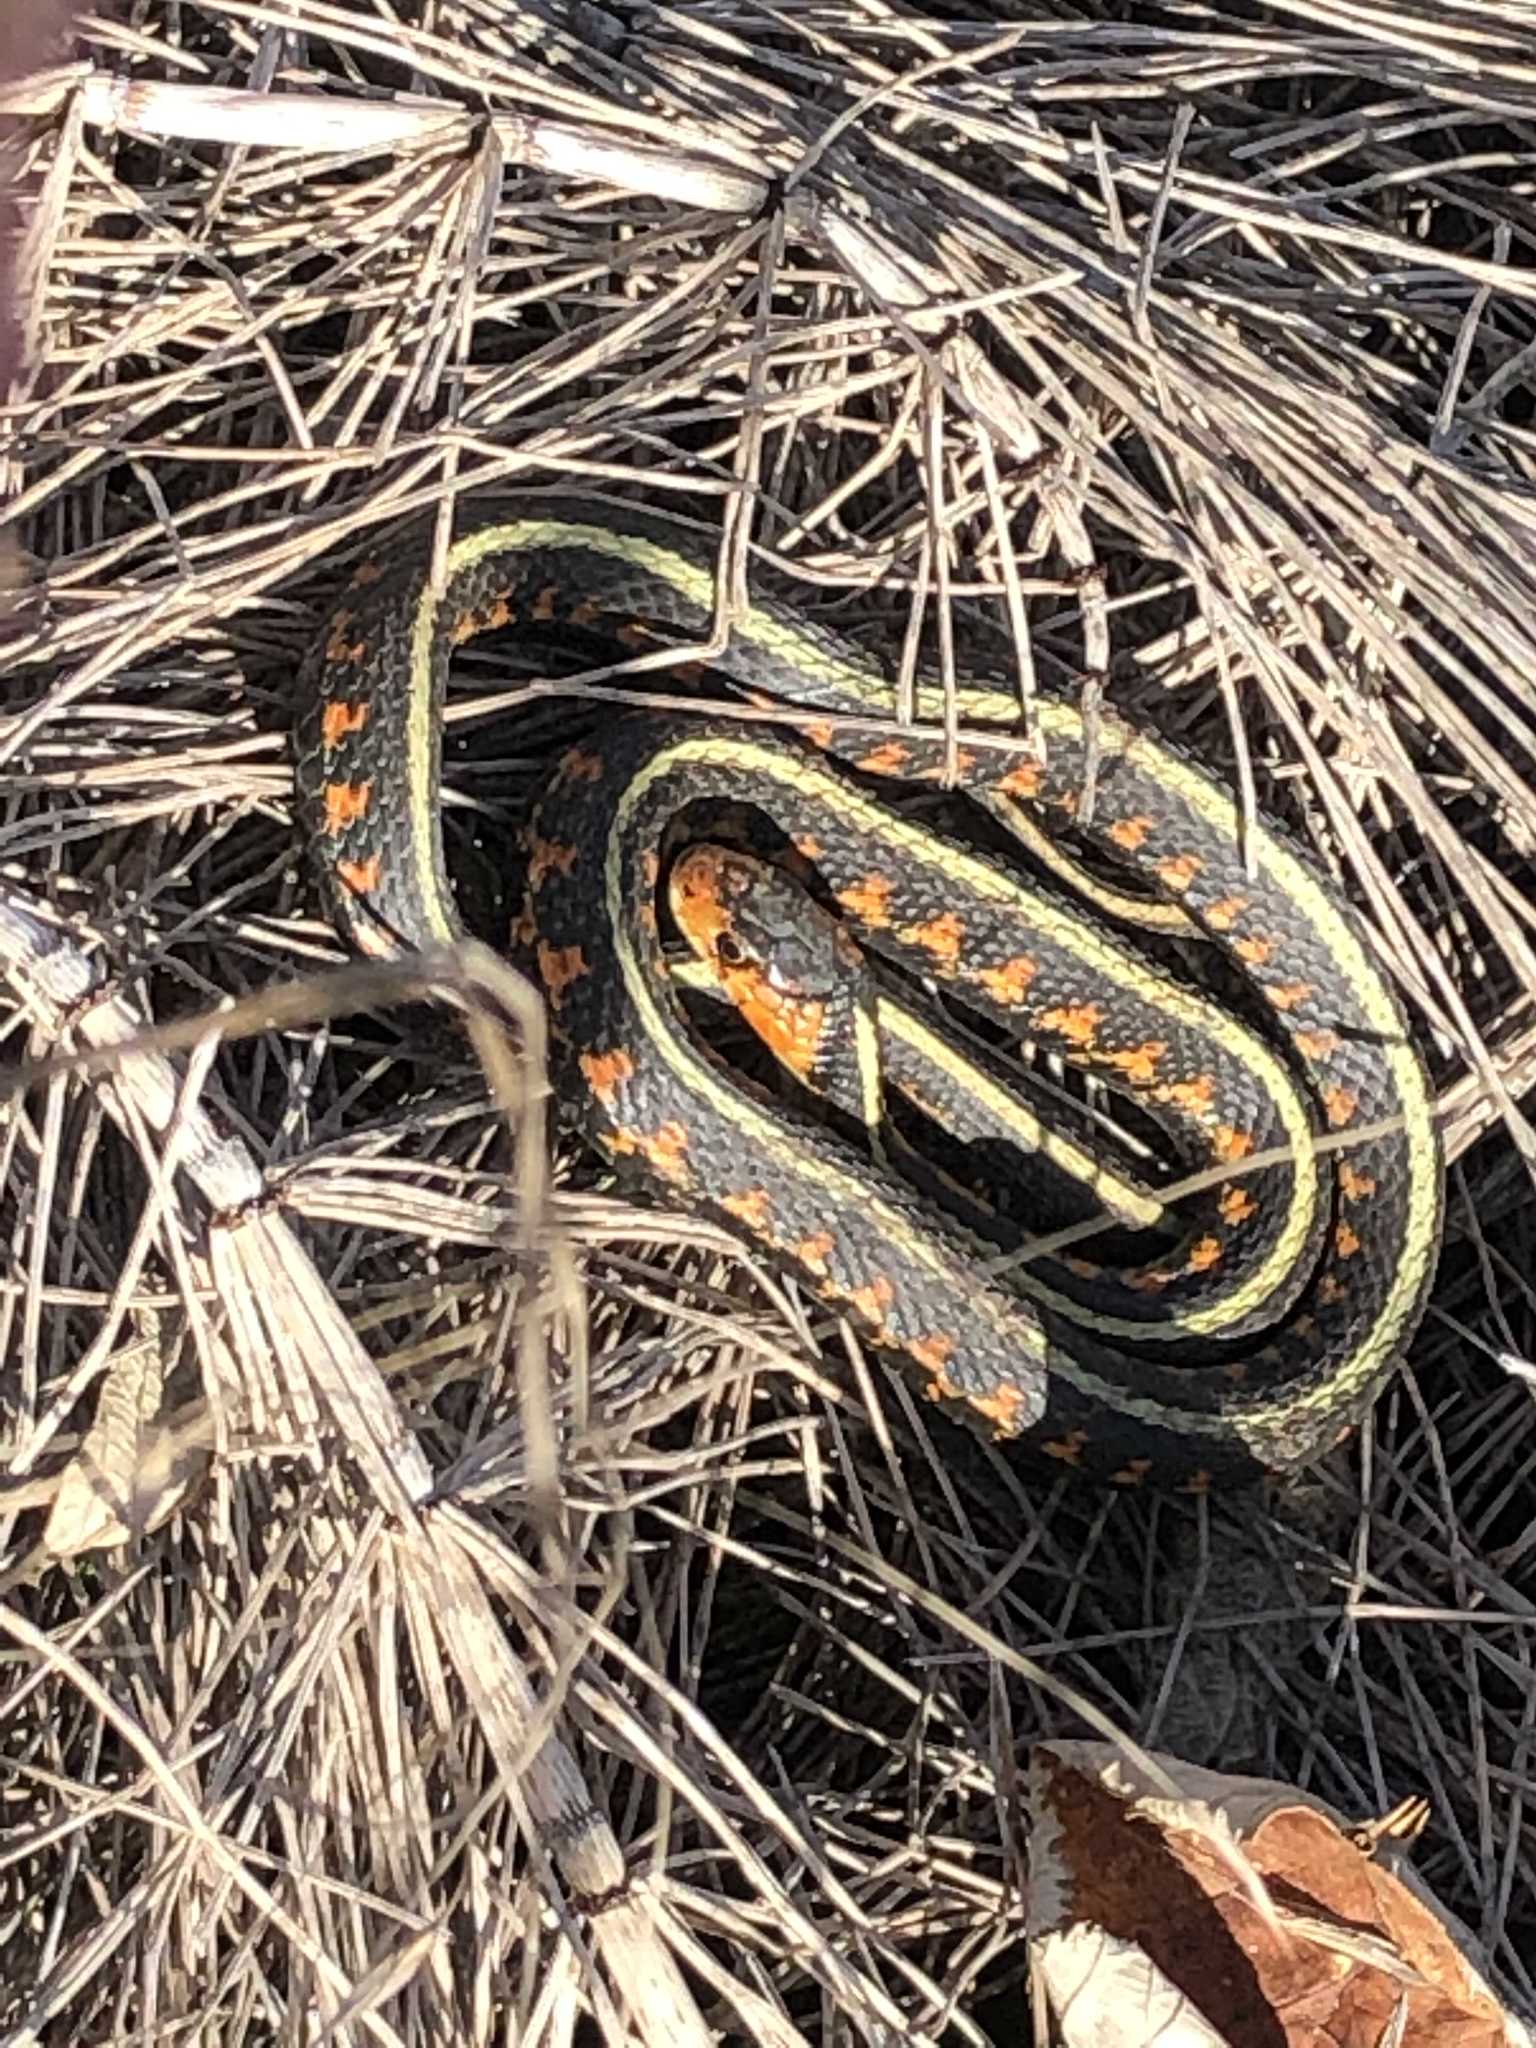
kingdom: Animalia
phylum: Chordata
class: Squamata
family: Colubridae
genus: Thamnophis
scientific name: Thamnophis sirtalis
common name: Common garter snake
